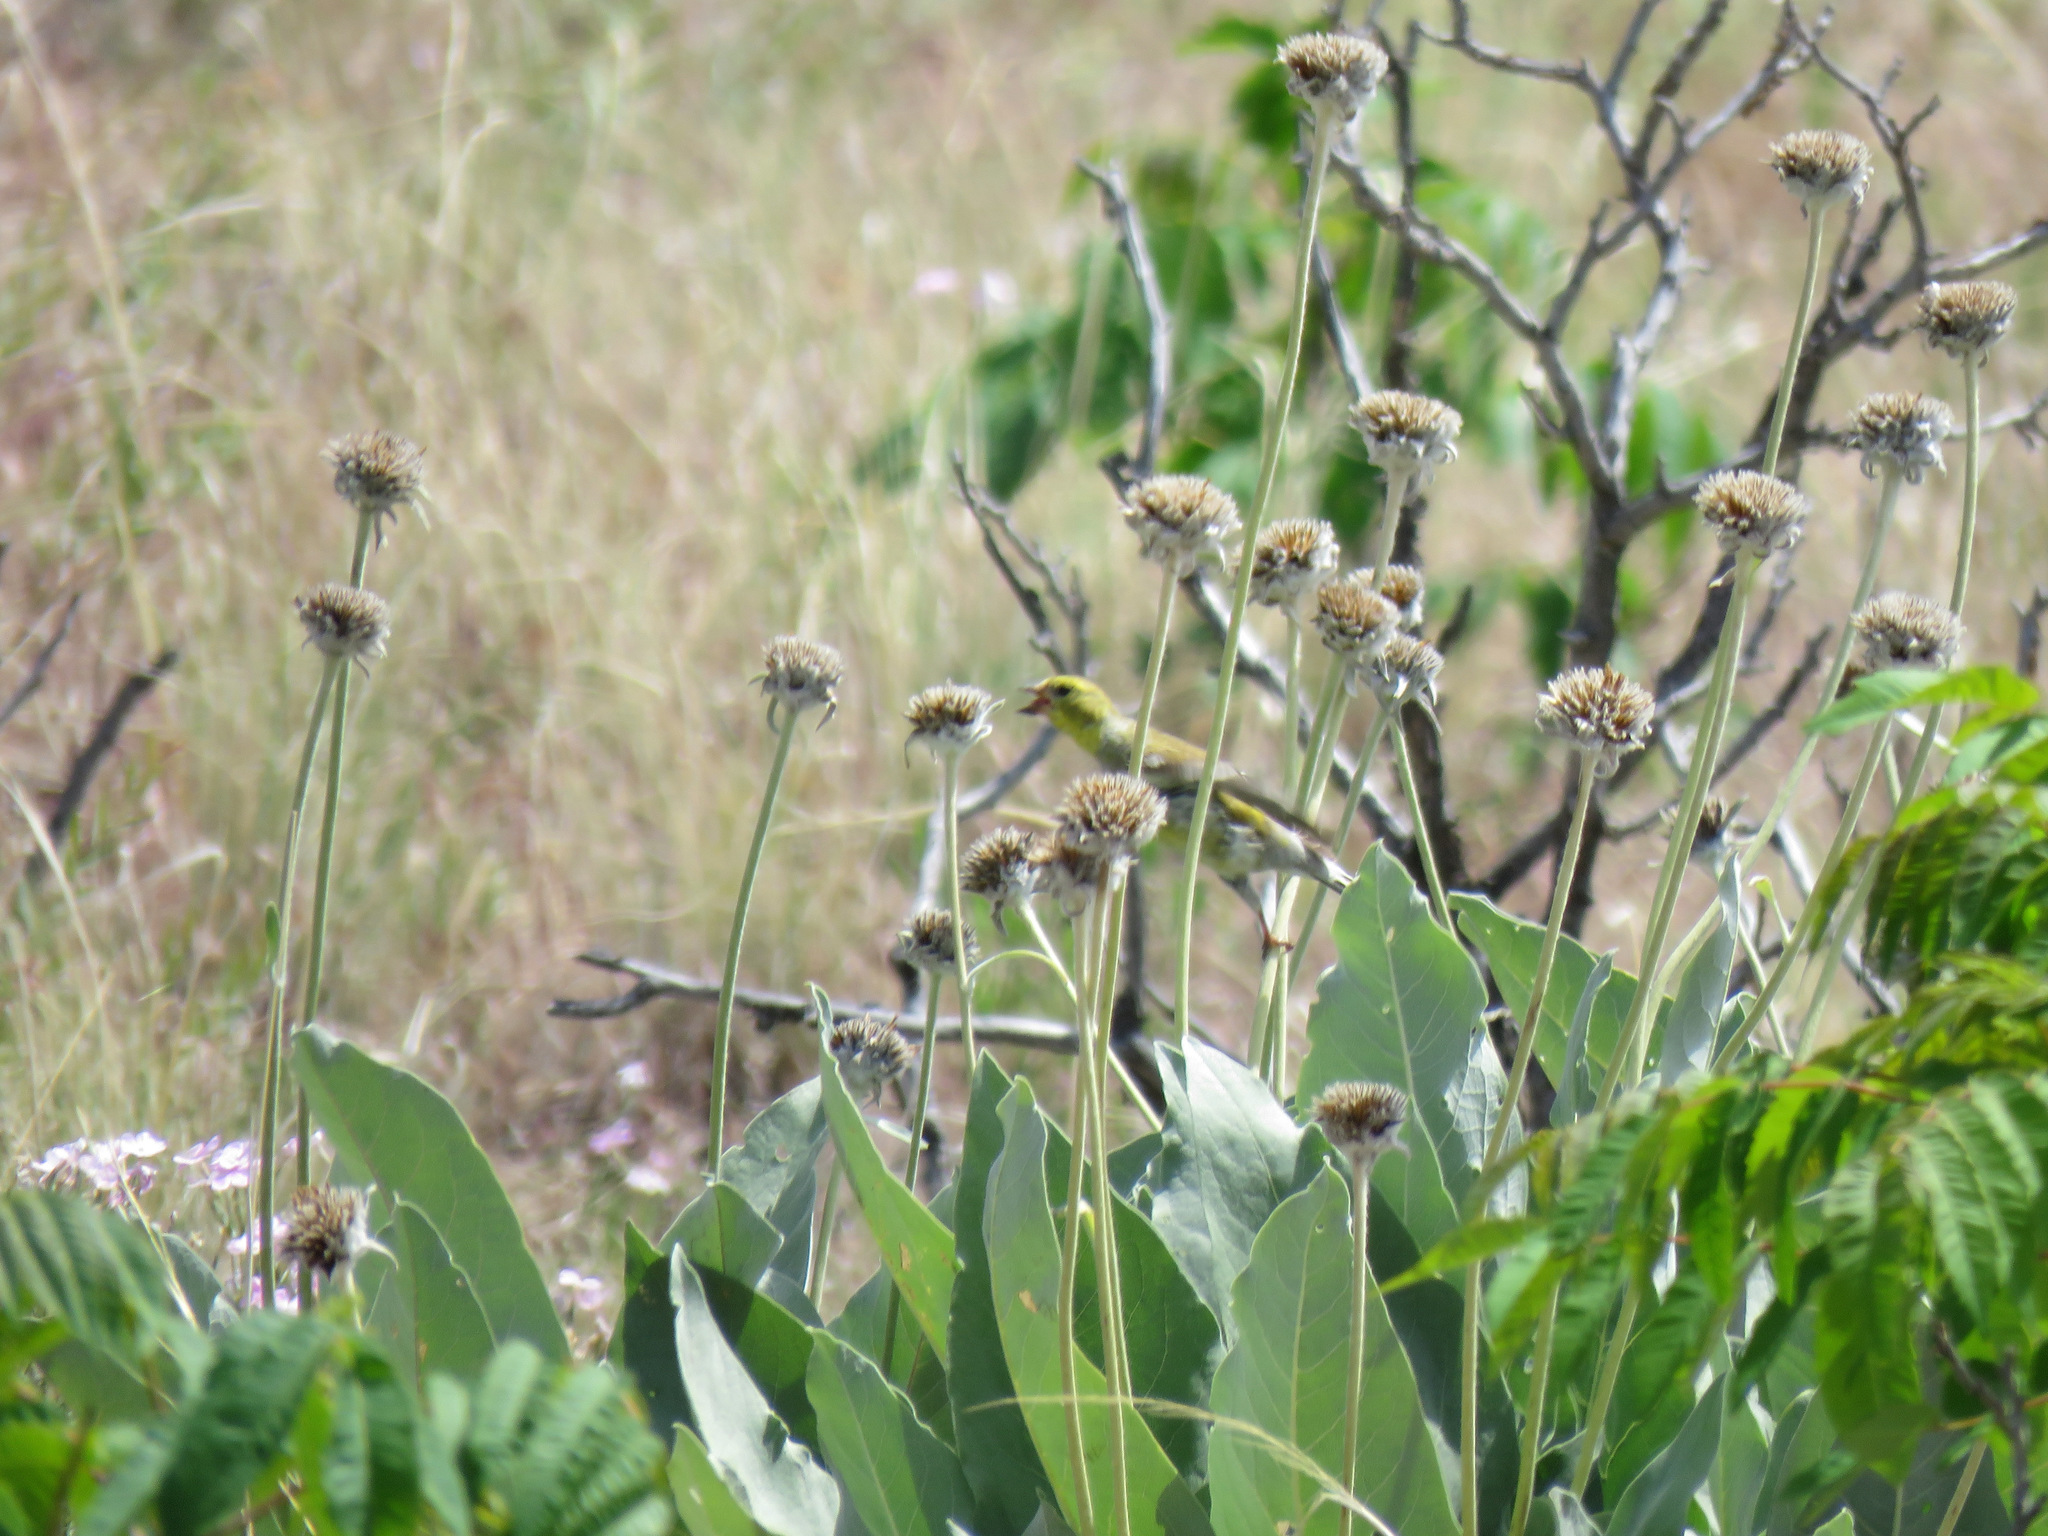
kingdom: Animalia
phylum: Chordata
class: Aves
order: Passeriformes
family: Fringillidae
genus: Spinus
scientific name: Spinus tristis
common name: American goldfinch
